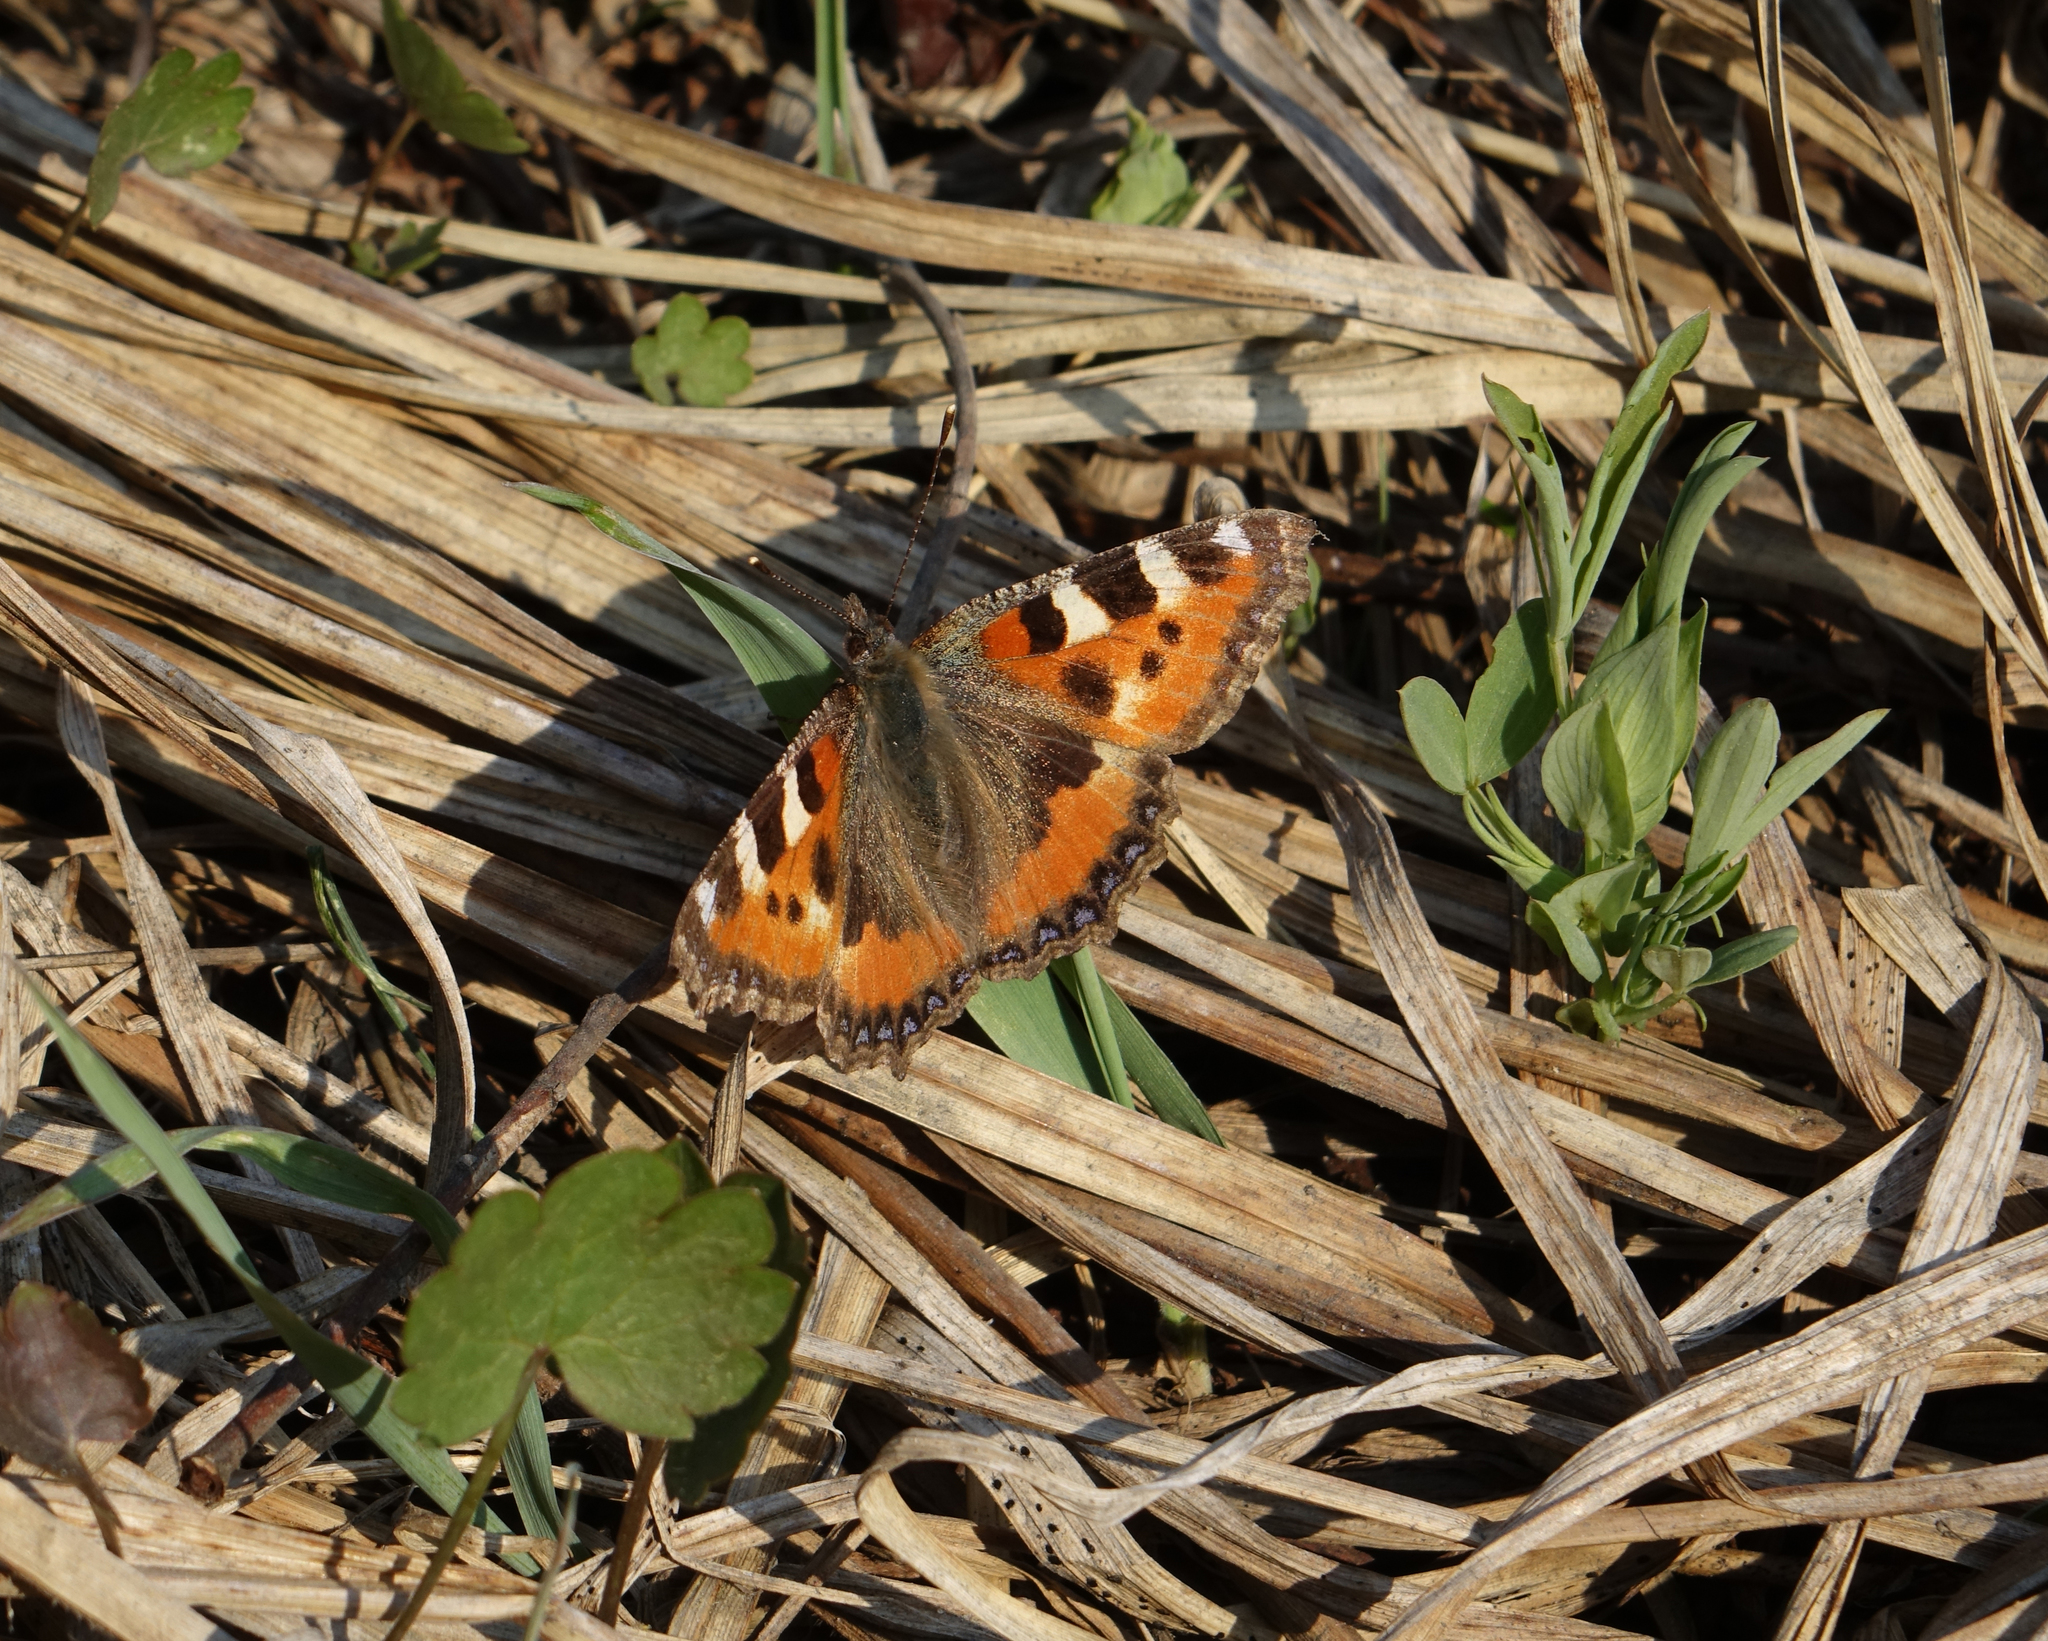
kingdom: Animalia
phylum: Arthropoda
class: Insecta
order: Lepidoptera
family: Nymphalidae
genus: Aglais
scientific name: Aglais urticae
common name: Small tortoiseshell
